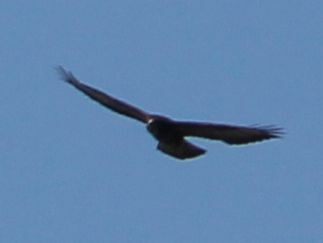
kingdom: Animalia
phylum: Chordata
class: Aves
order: Accipitriformes
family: Accipitridae
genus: Buteo
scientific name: Buteo buteo
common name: Common buzzard
